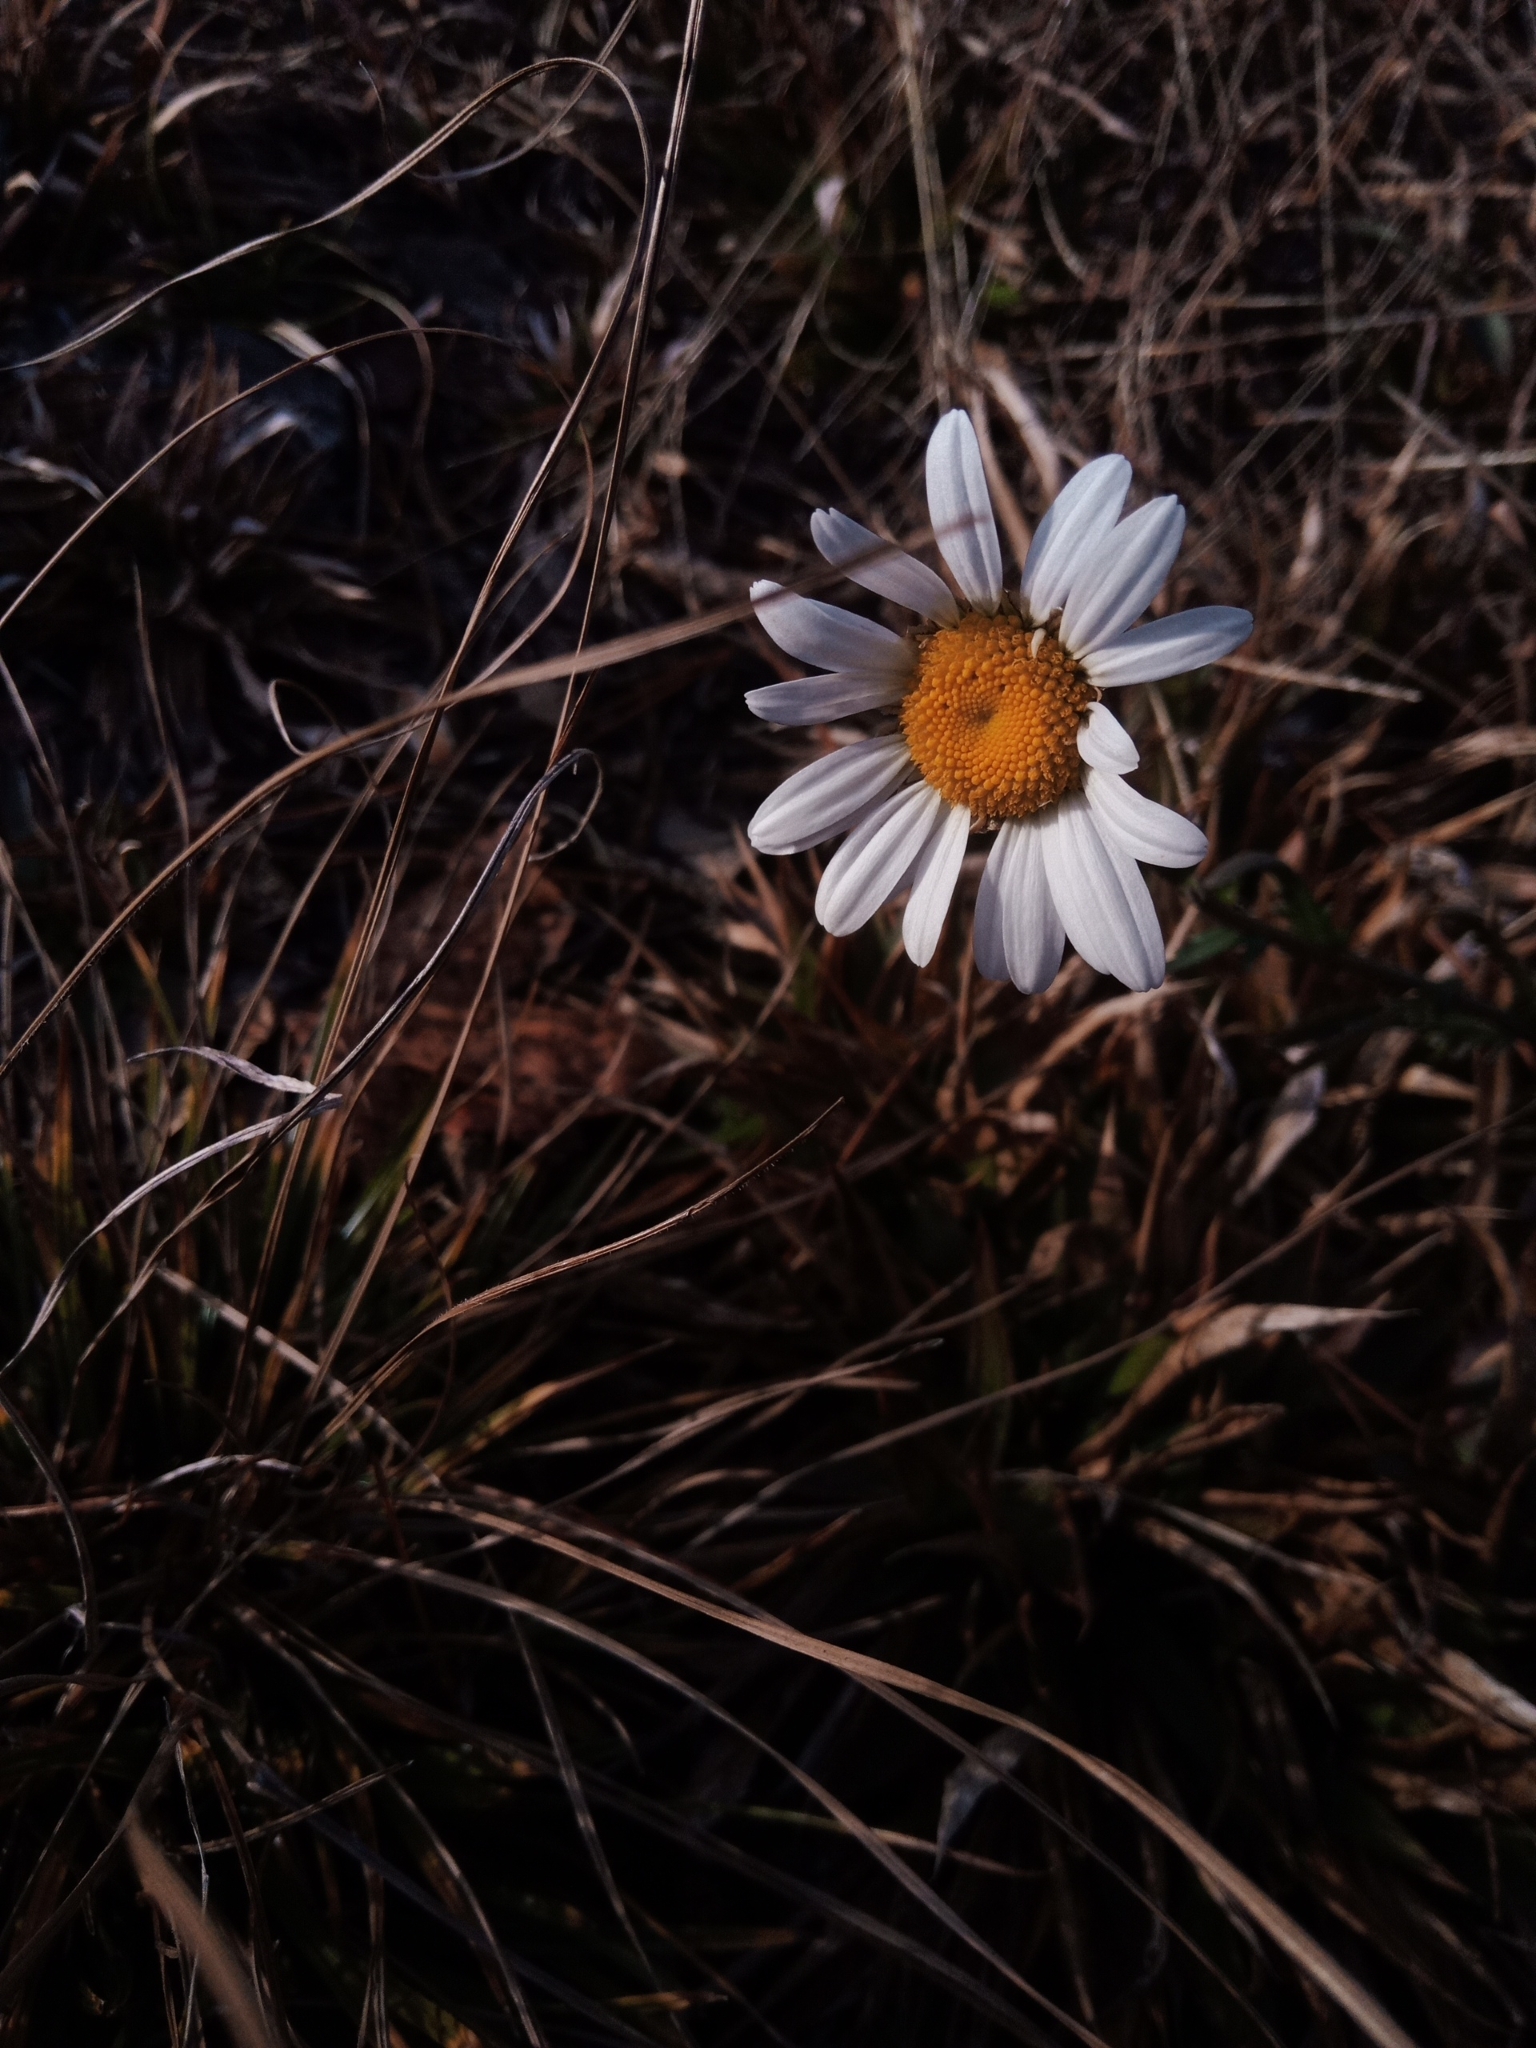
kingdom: Plantae
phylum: Tracheophyta
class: Magnoliopsida
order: Asterales
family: Asteraceae
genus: Leucanthemum
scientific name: Leucanthemum vulgare
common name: Oxeye daisy
